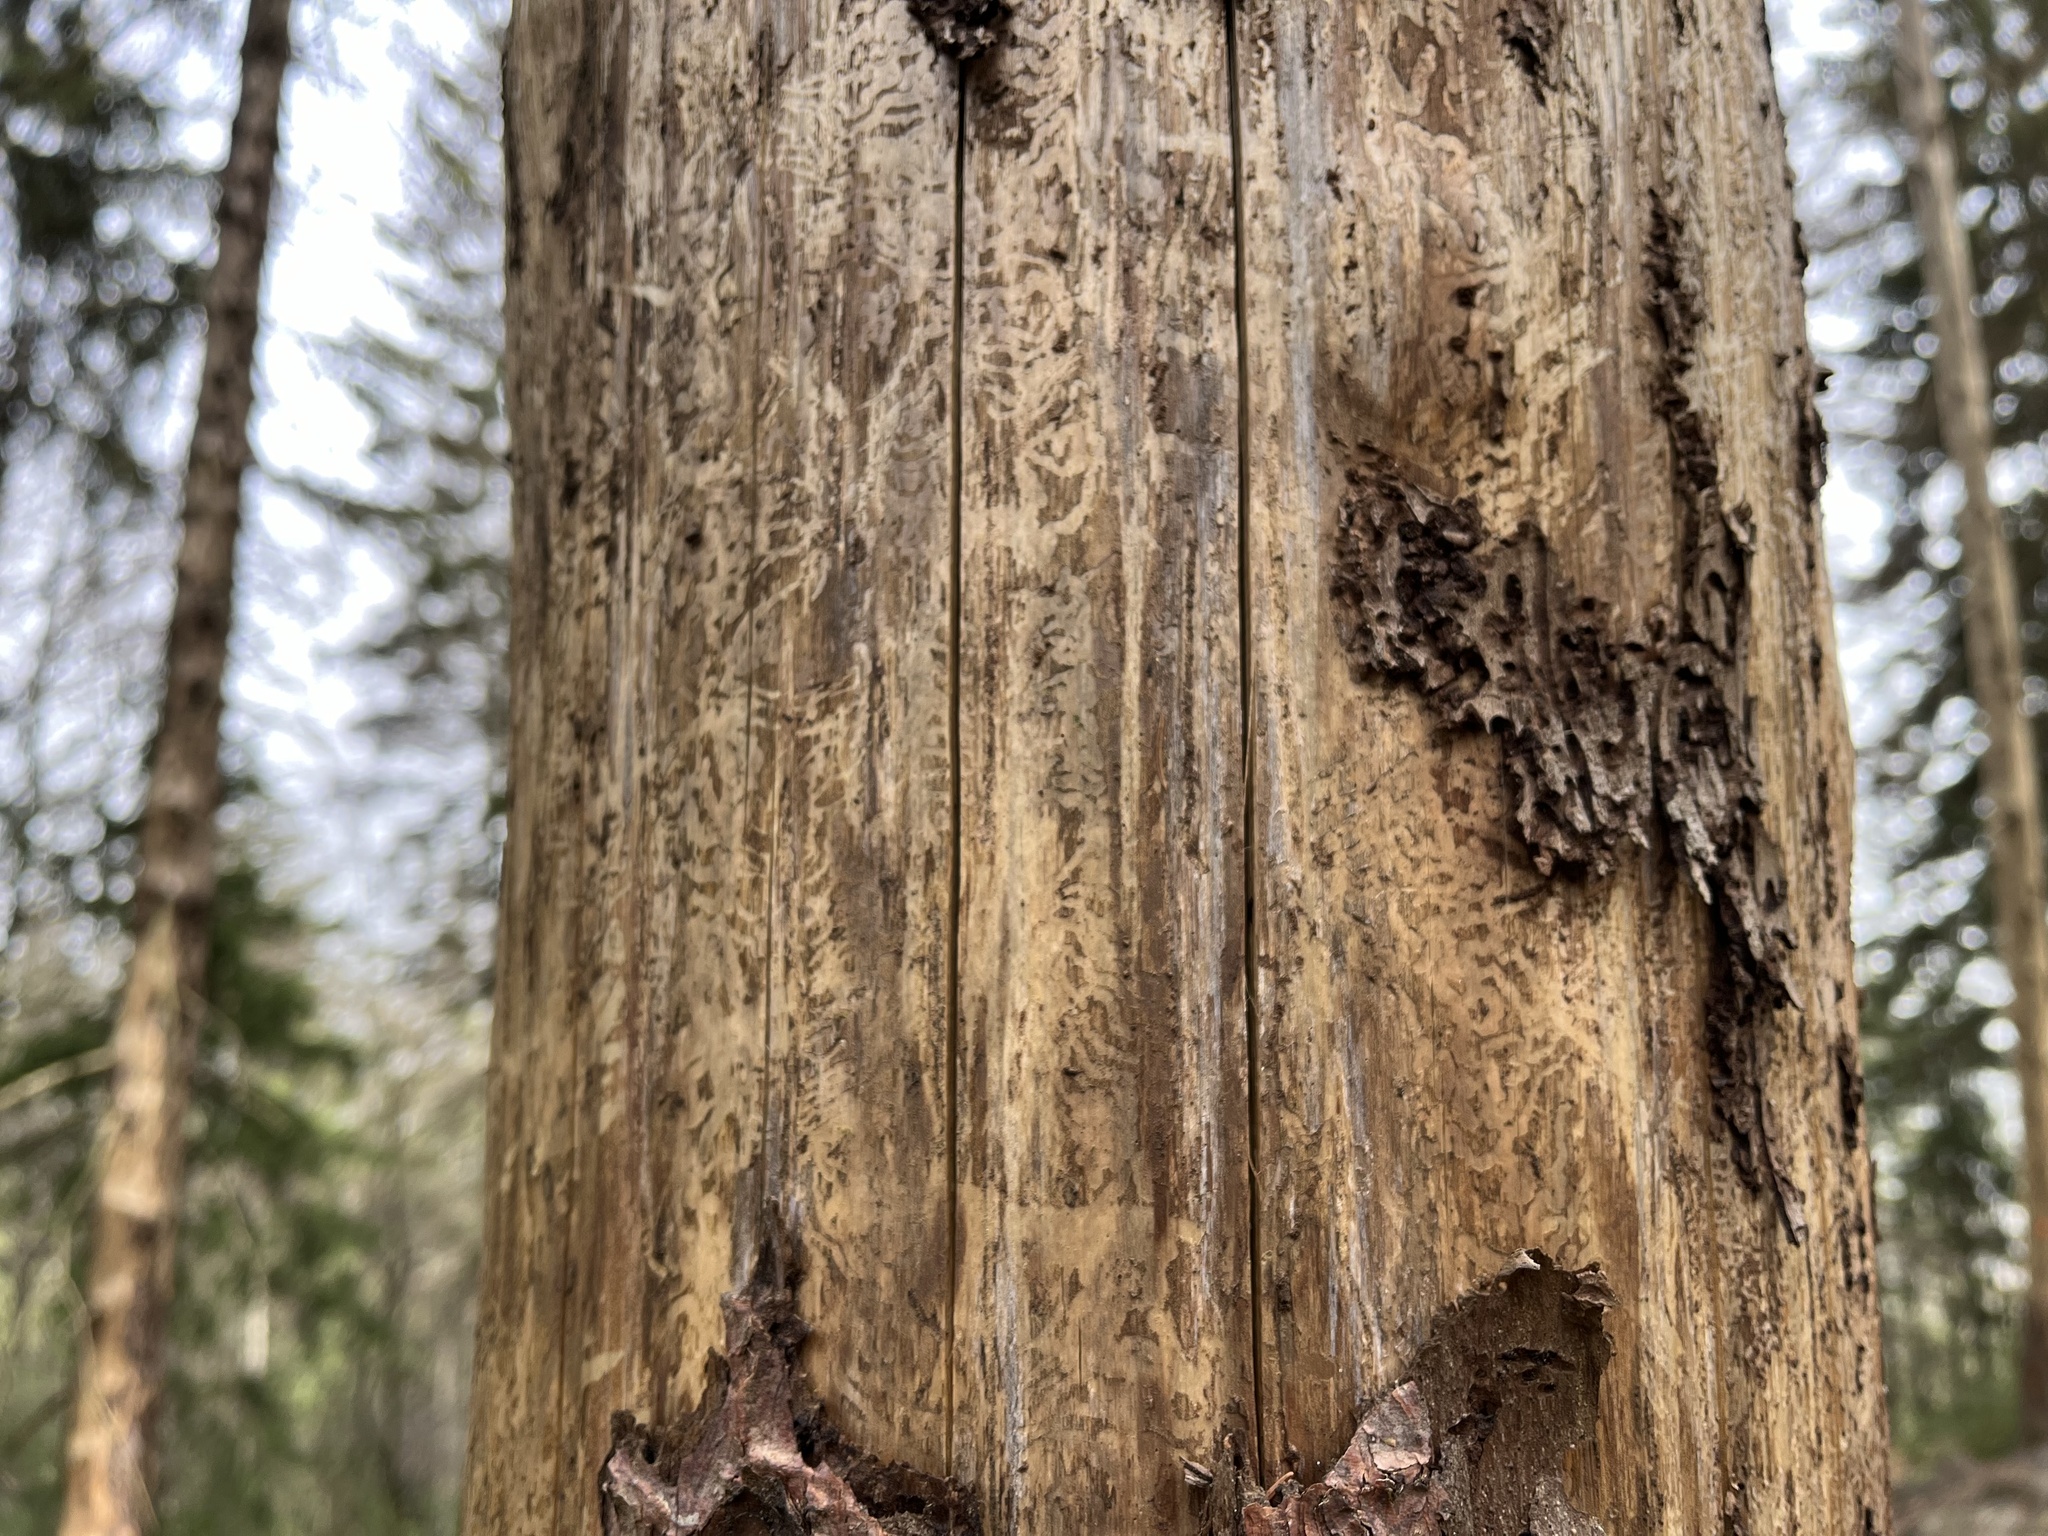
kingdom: Animalia
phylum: Arthropoda
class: Insecta
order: Coleoptera
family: Curculionidae
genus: Ips
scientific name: Ips typographus
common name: Eight-toothed spruce bark beetle
